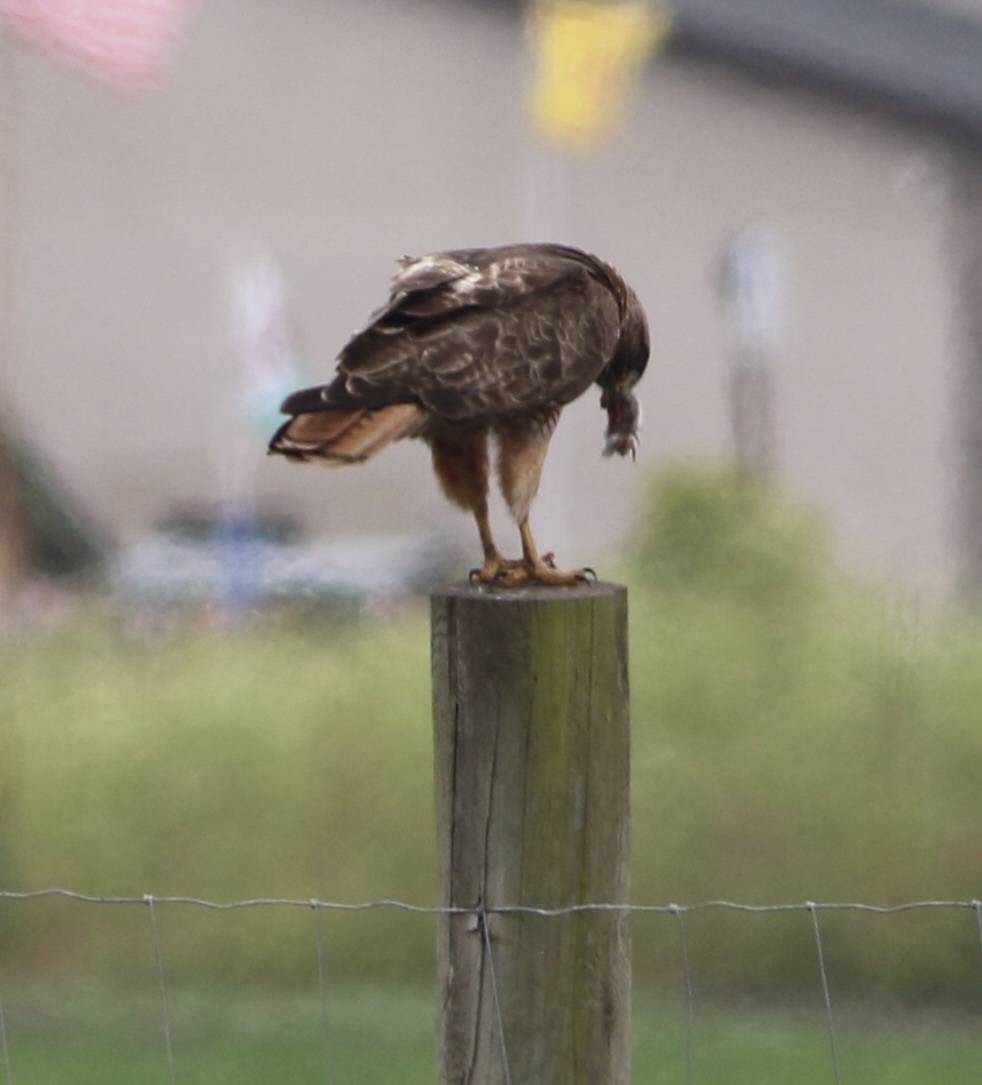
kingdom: Animalia
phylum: Chordata
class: Aves
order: Accipitriformes
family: Accipitridae
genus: Buteo
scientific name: Buteo jamaicensis
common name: Red-tailed hawk
